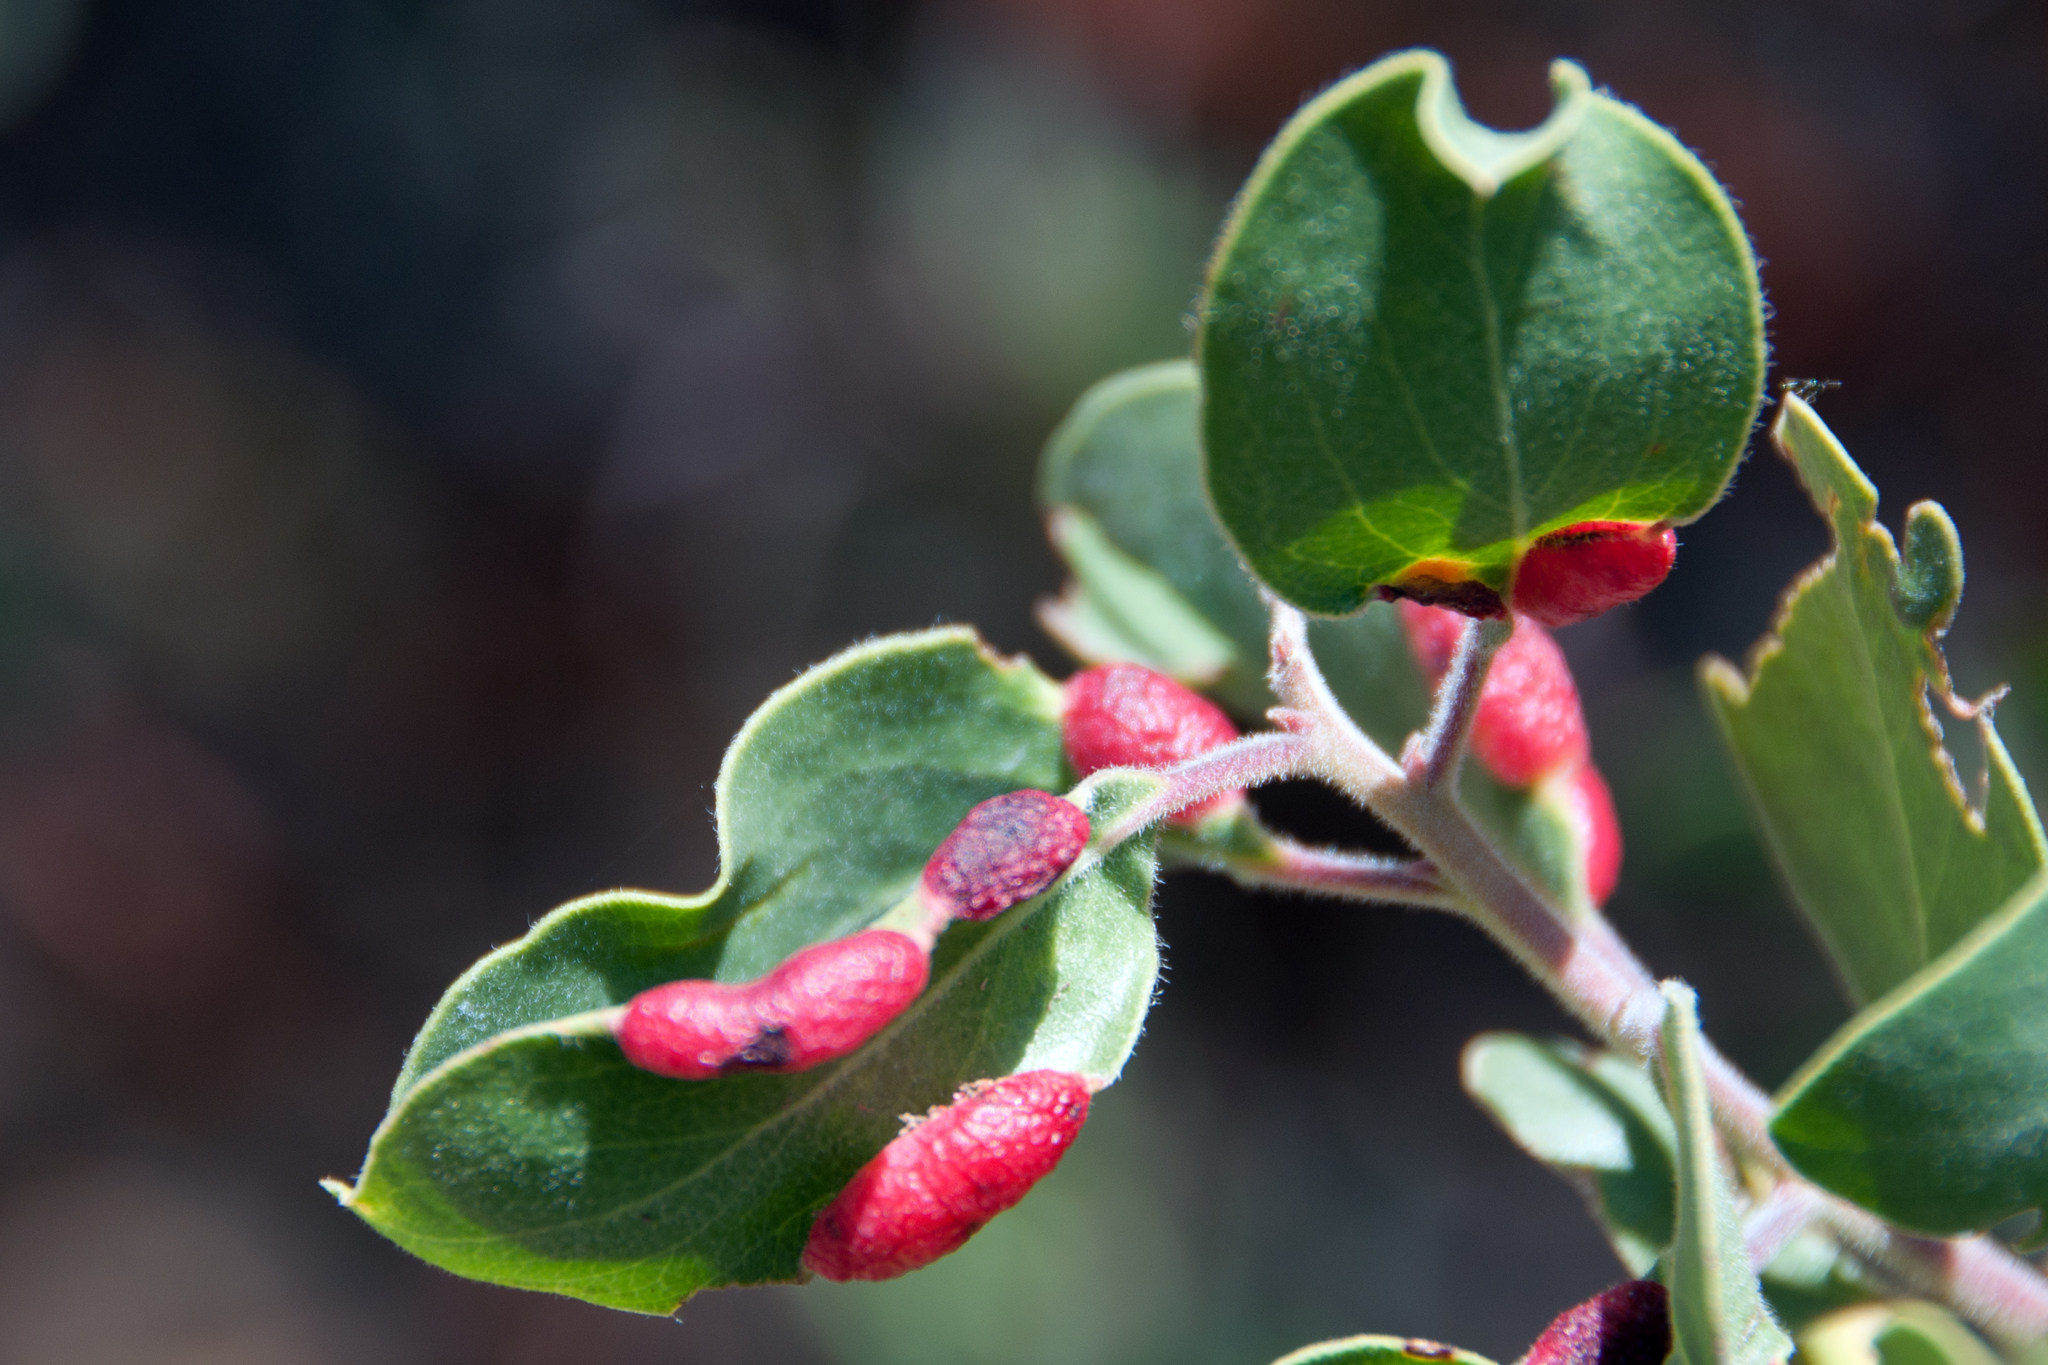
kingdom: Animalia
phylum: Arthropoda
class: Insecta
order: Hemiptera
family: Aphididae
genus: Tamalia
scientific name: Tamalia coweni
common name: Manzanita leafgall aphid
